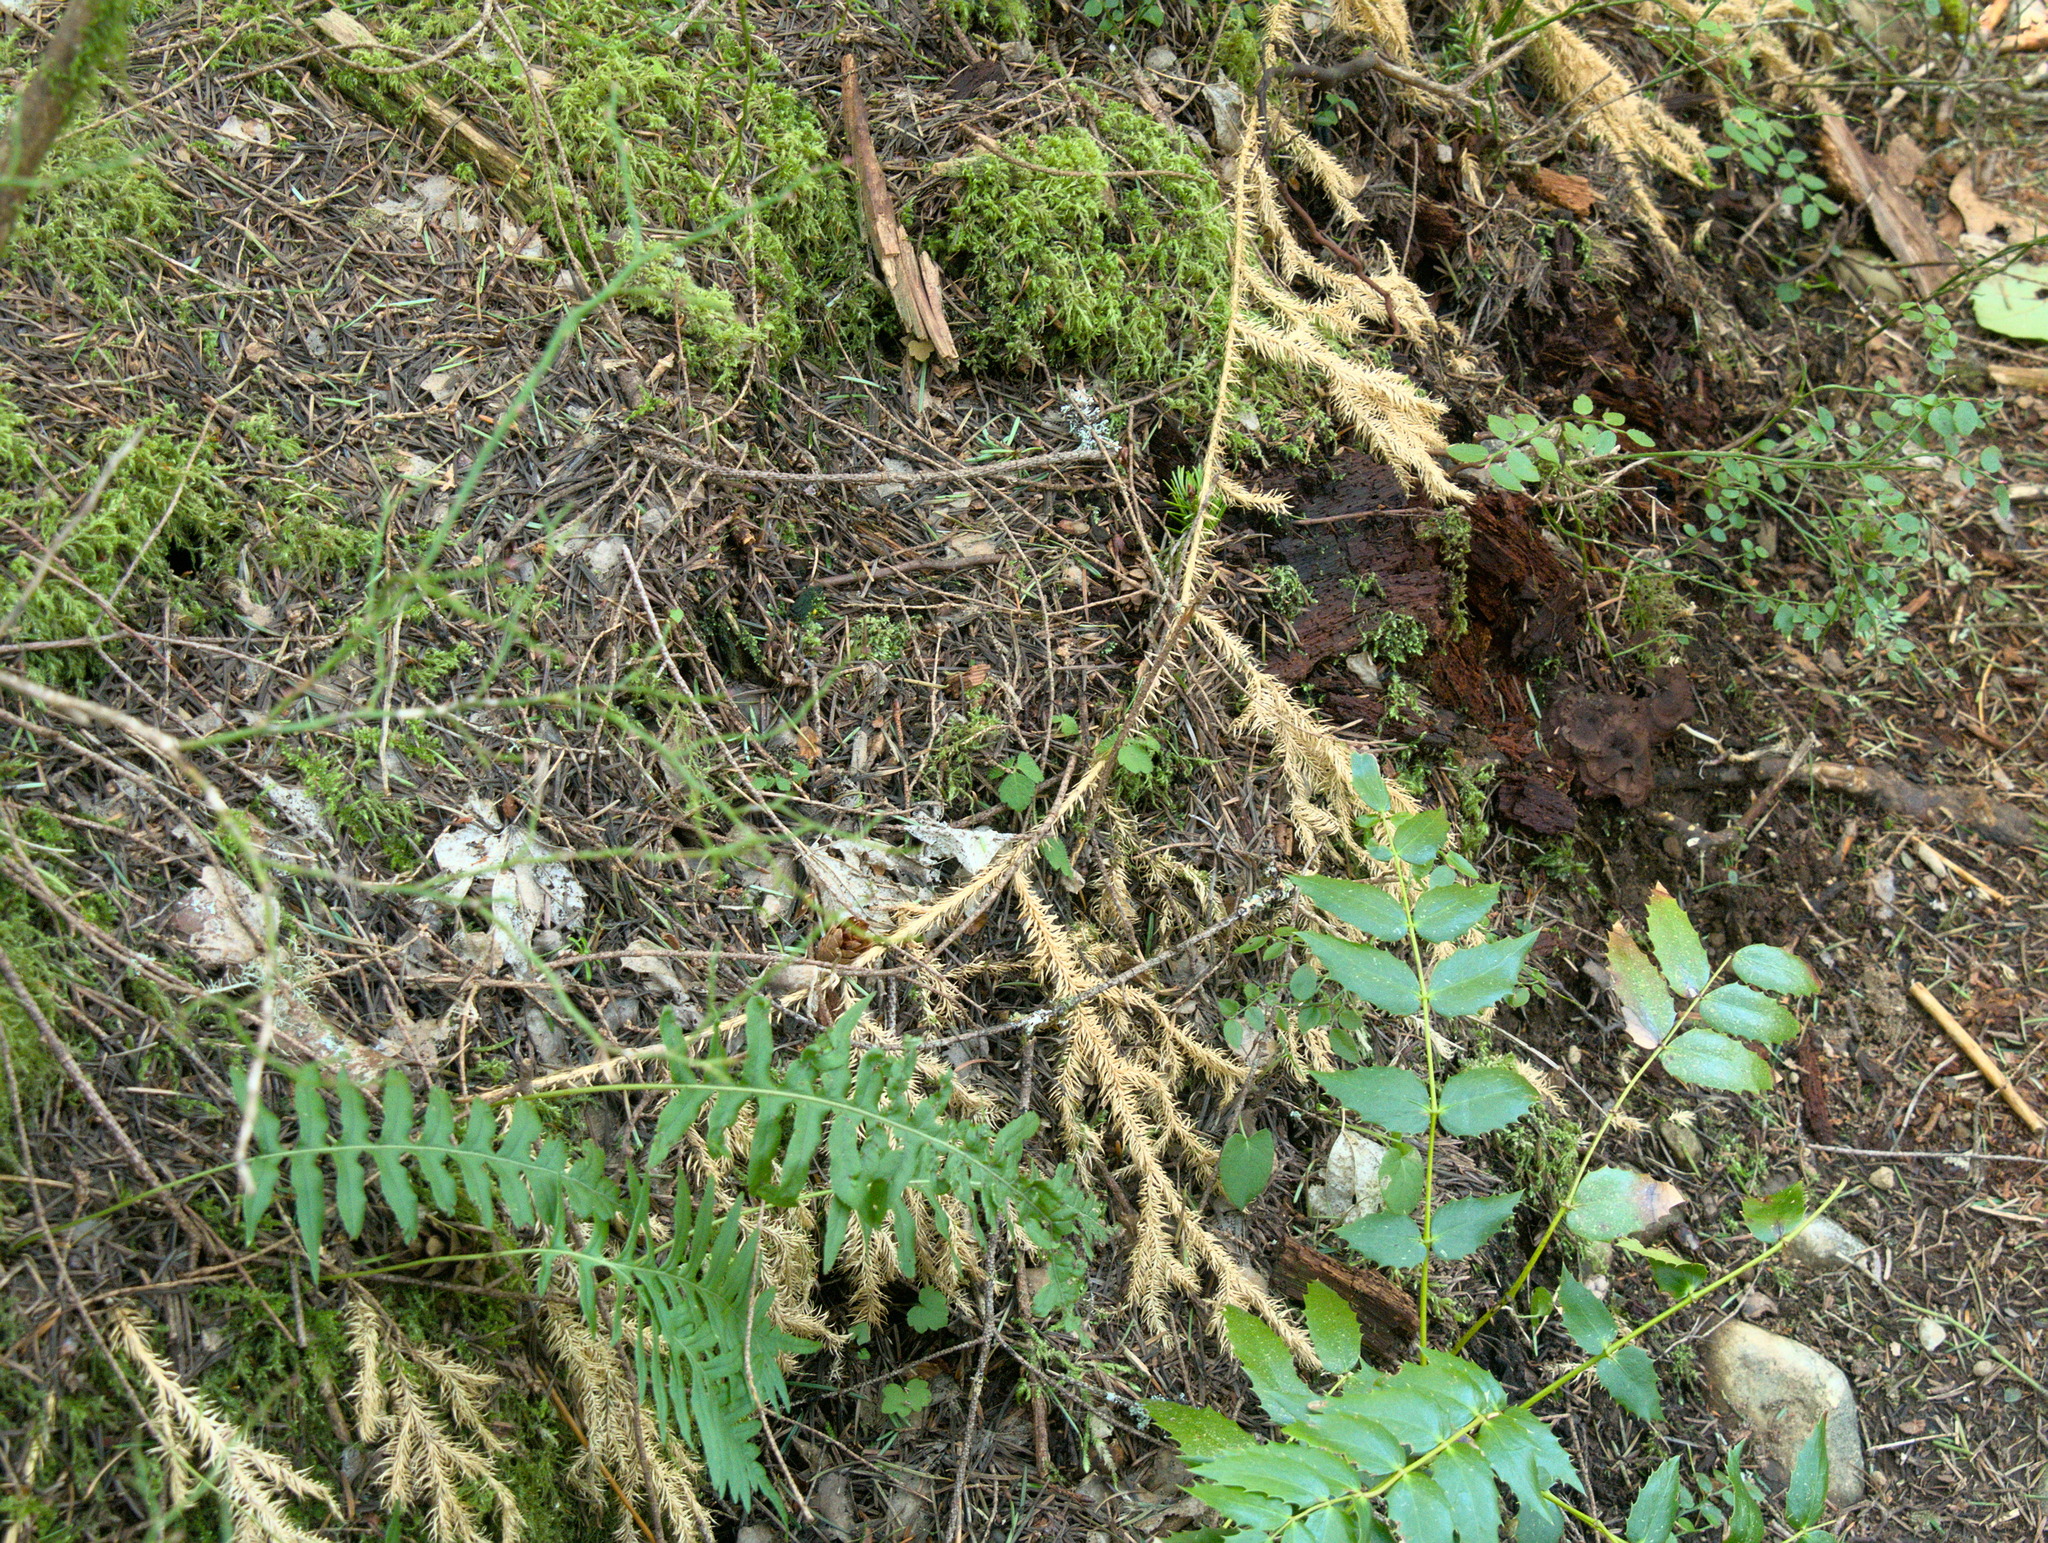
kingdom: Plantae
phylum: Tracheophyta
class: Lycopodiopsida
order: Lycopodiales
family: Lycopodiaceae
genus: Lycopodium
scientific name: Lycopodium clavatum
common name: Stag's-horn clubmoss
